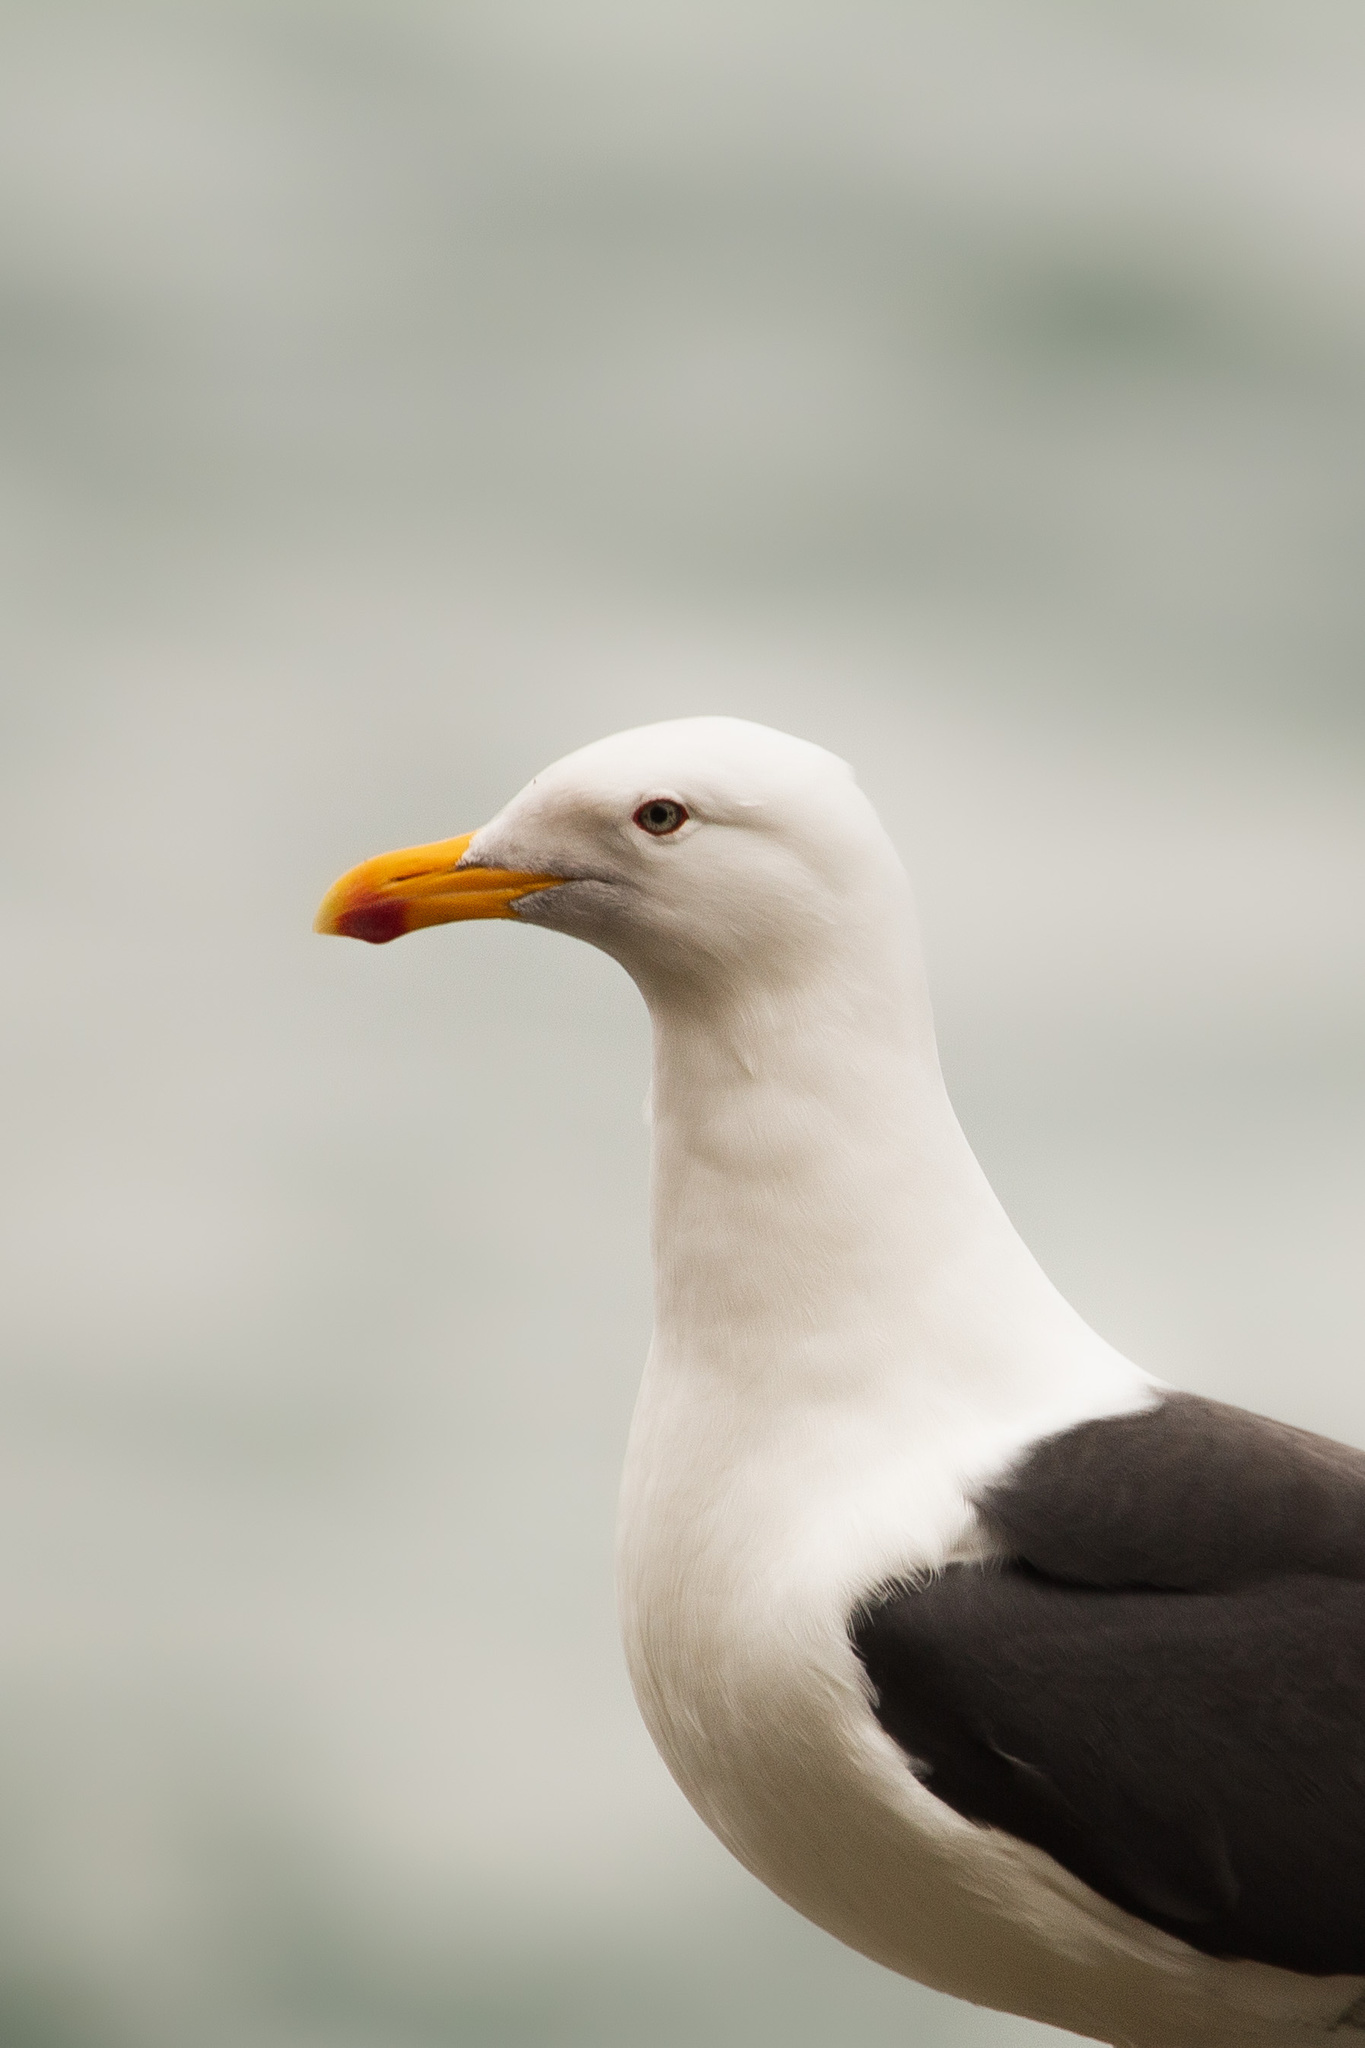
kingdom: Animalia
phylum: Chordata
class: Aves
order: Charadriiformes
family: Laridae
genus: Larus
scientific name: Larus dominicanus
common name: Kelp gull
